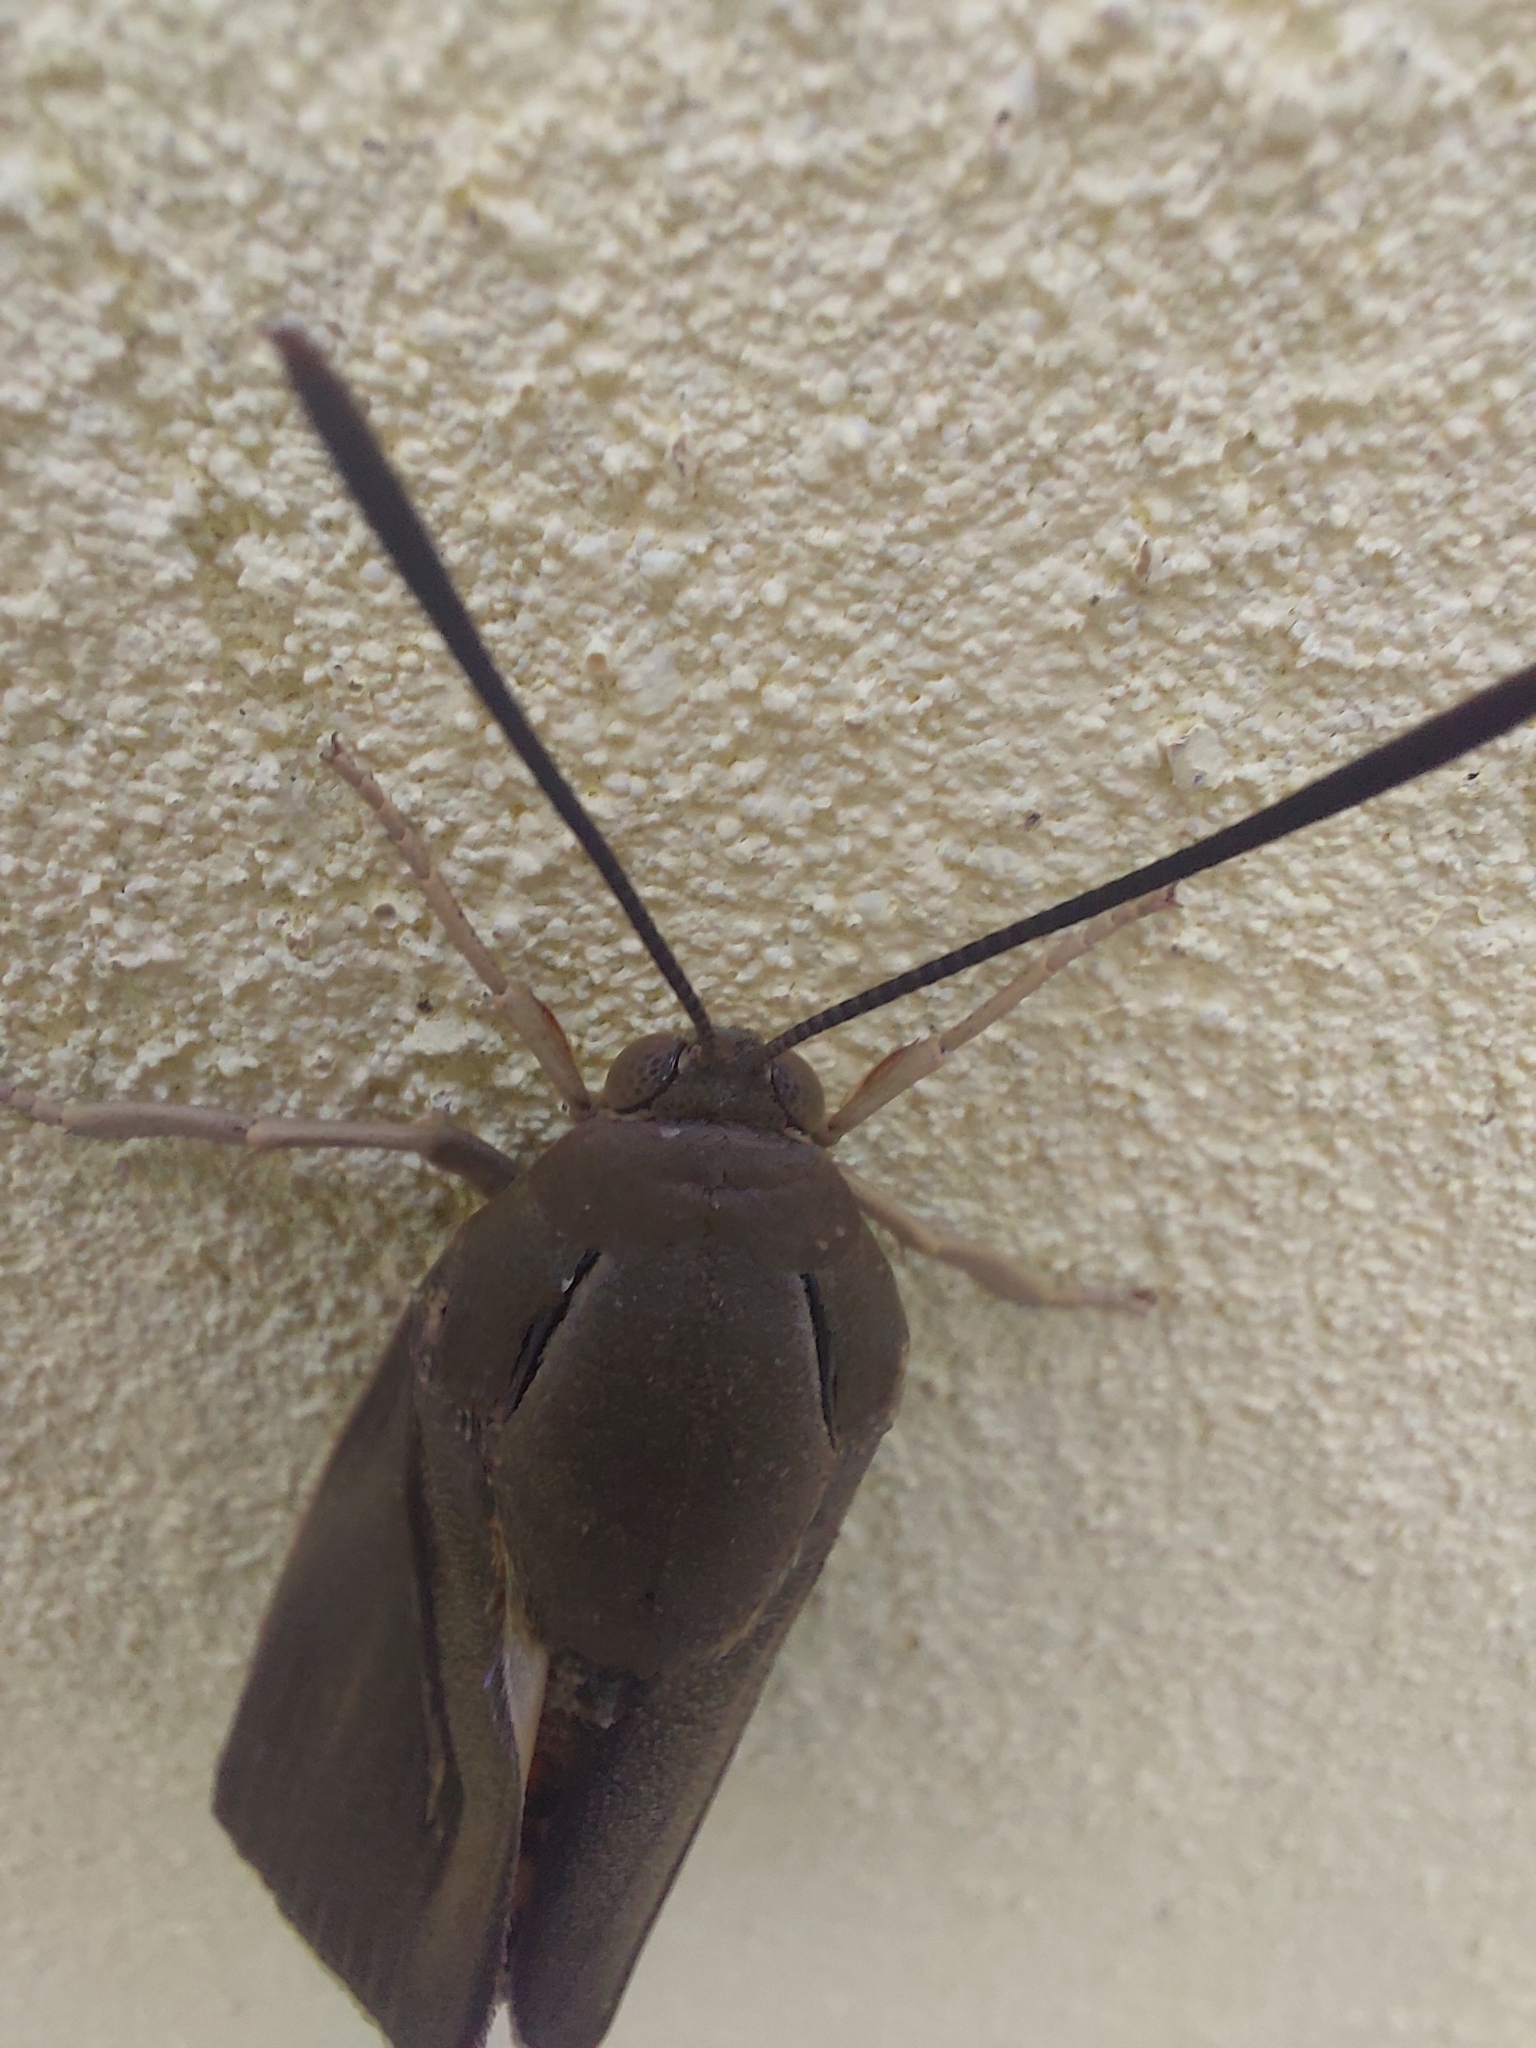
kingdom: Animalia
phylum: Arthropoda
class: Insecta
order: Lepidoptera
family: Castniidae
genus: Paysandisia
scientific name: Paysandisia archon
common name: Palm moth
